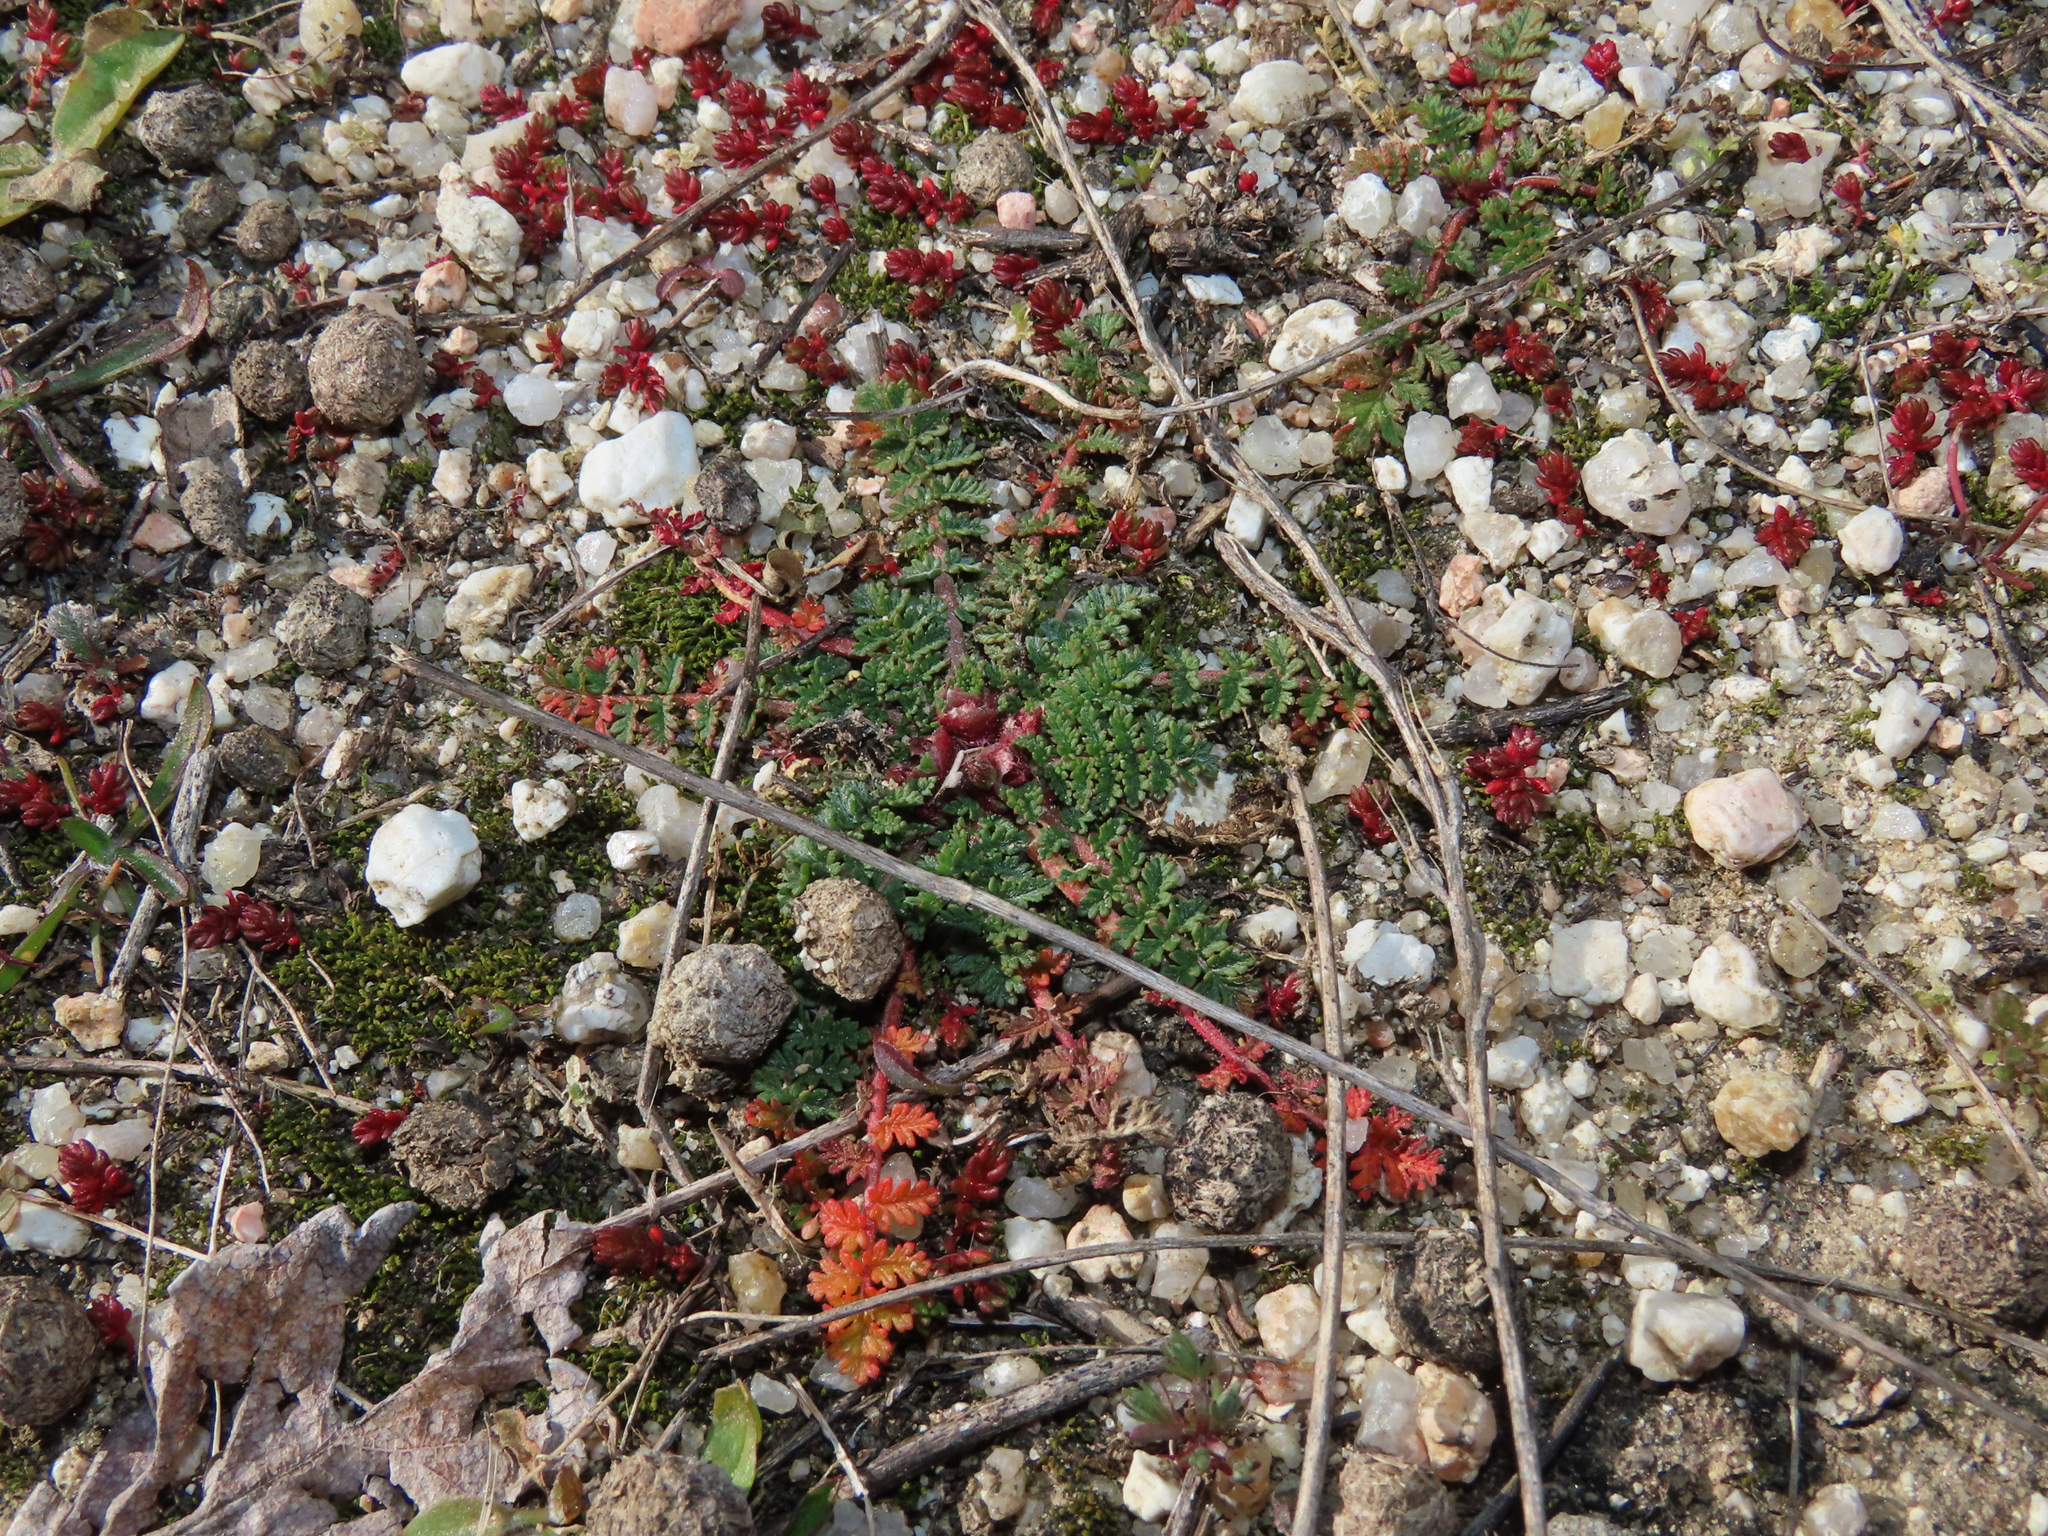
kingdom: Plantae
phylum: Tracheophyta
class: Magnoliopsida
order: Geraniales
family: Geraniaceae
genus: Erodium
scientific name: Erodium cicutarium
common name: Common stork's-bill
